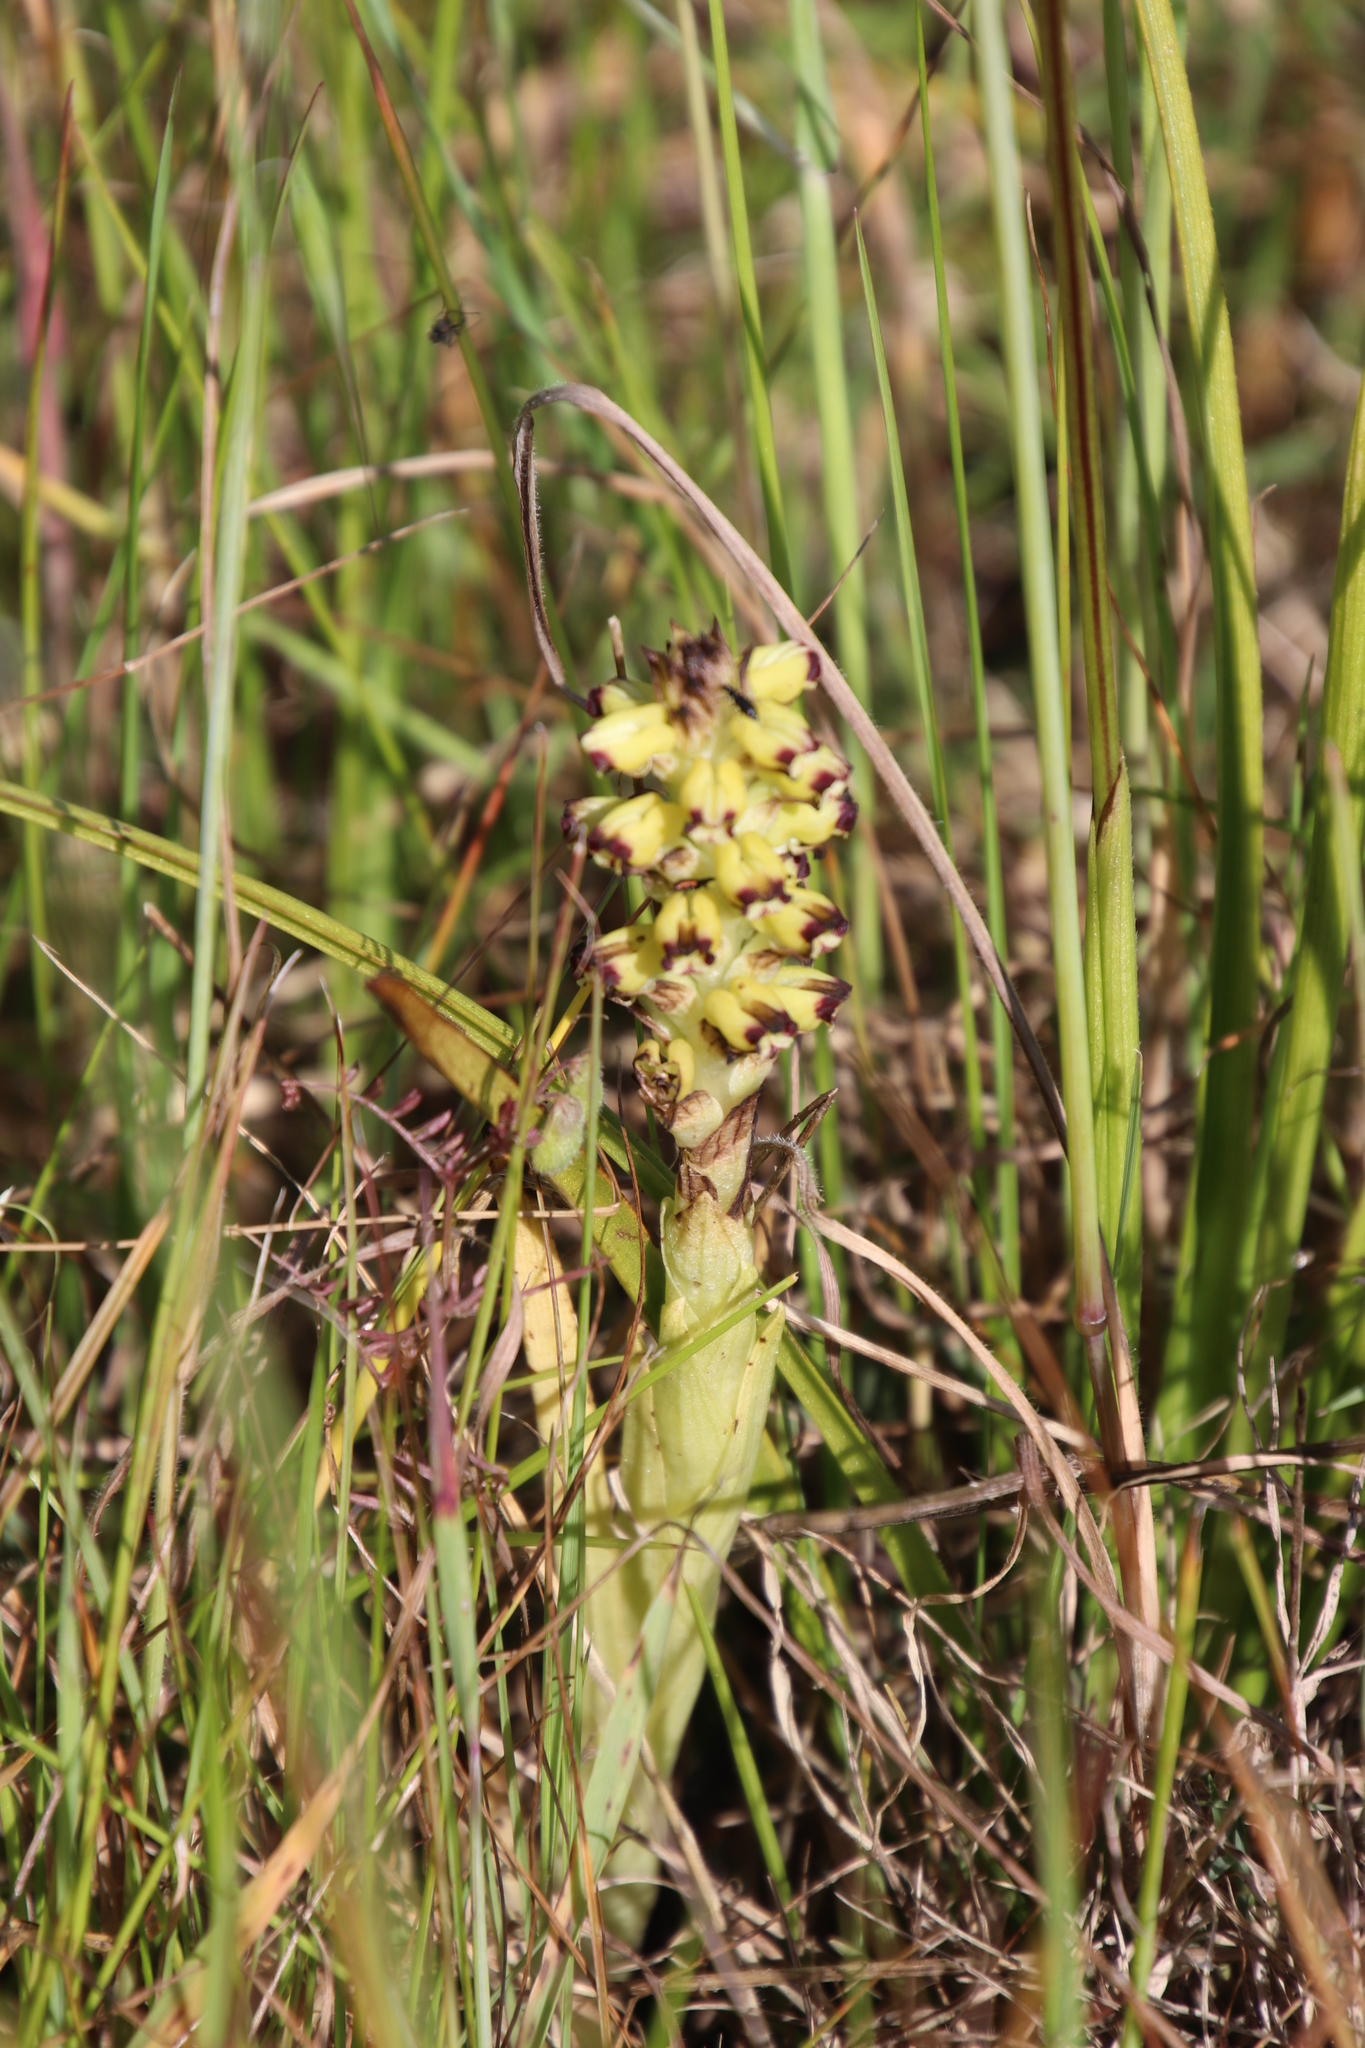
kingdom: Plantae
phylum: Tracheophyta
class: Liliopsida
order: Asparagales
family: Orchidaceae
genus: Corycium
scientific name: Corycium orobanchoides
